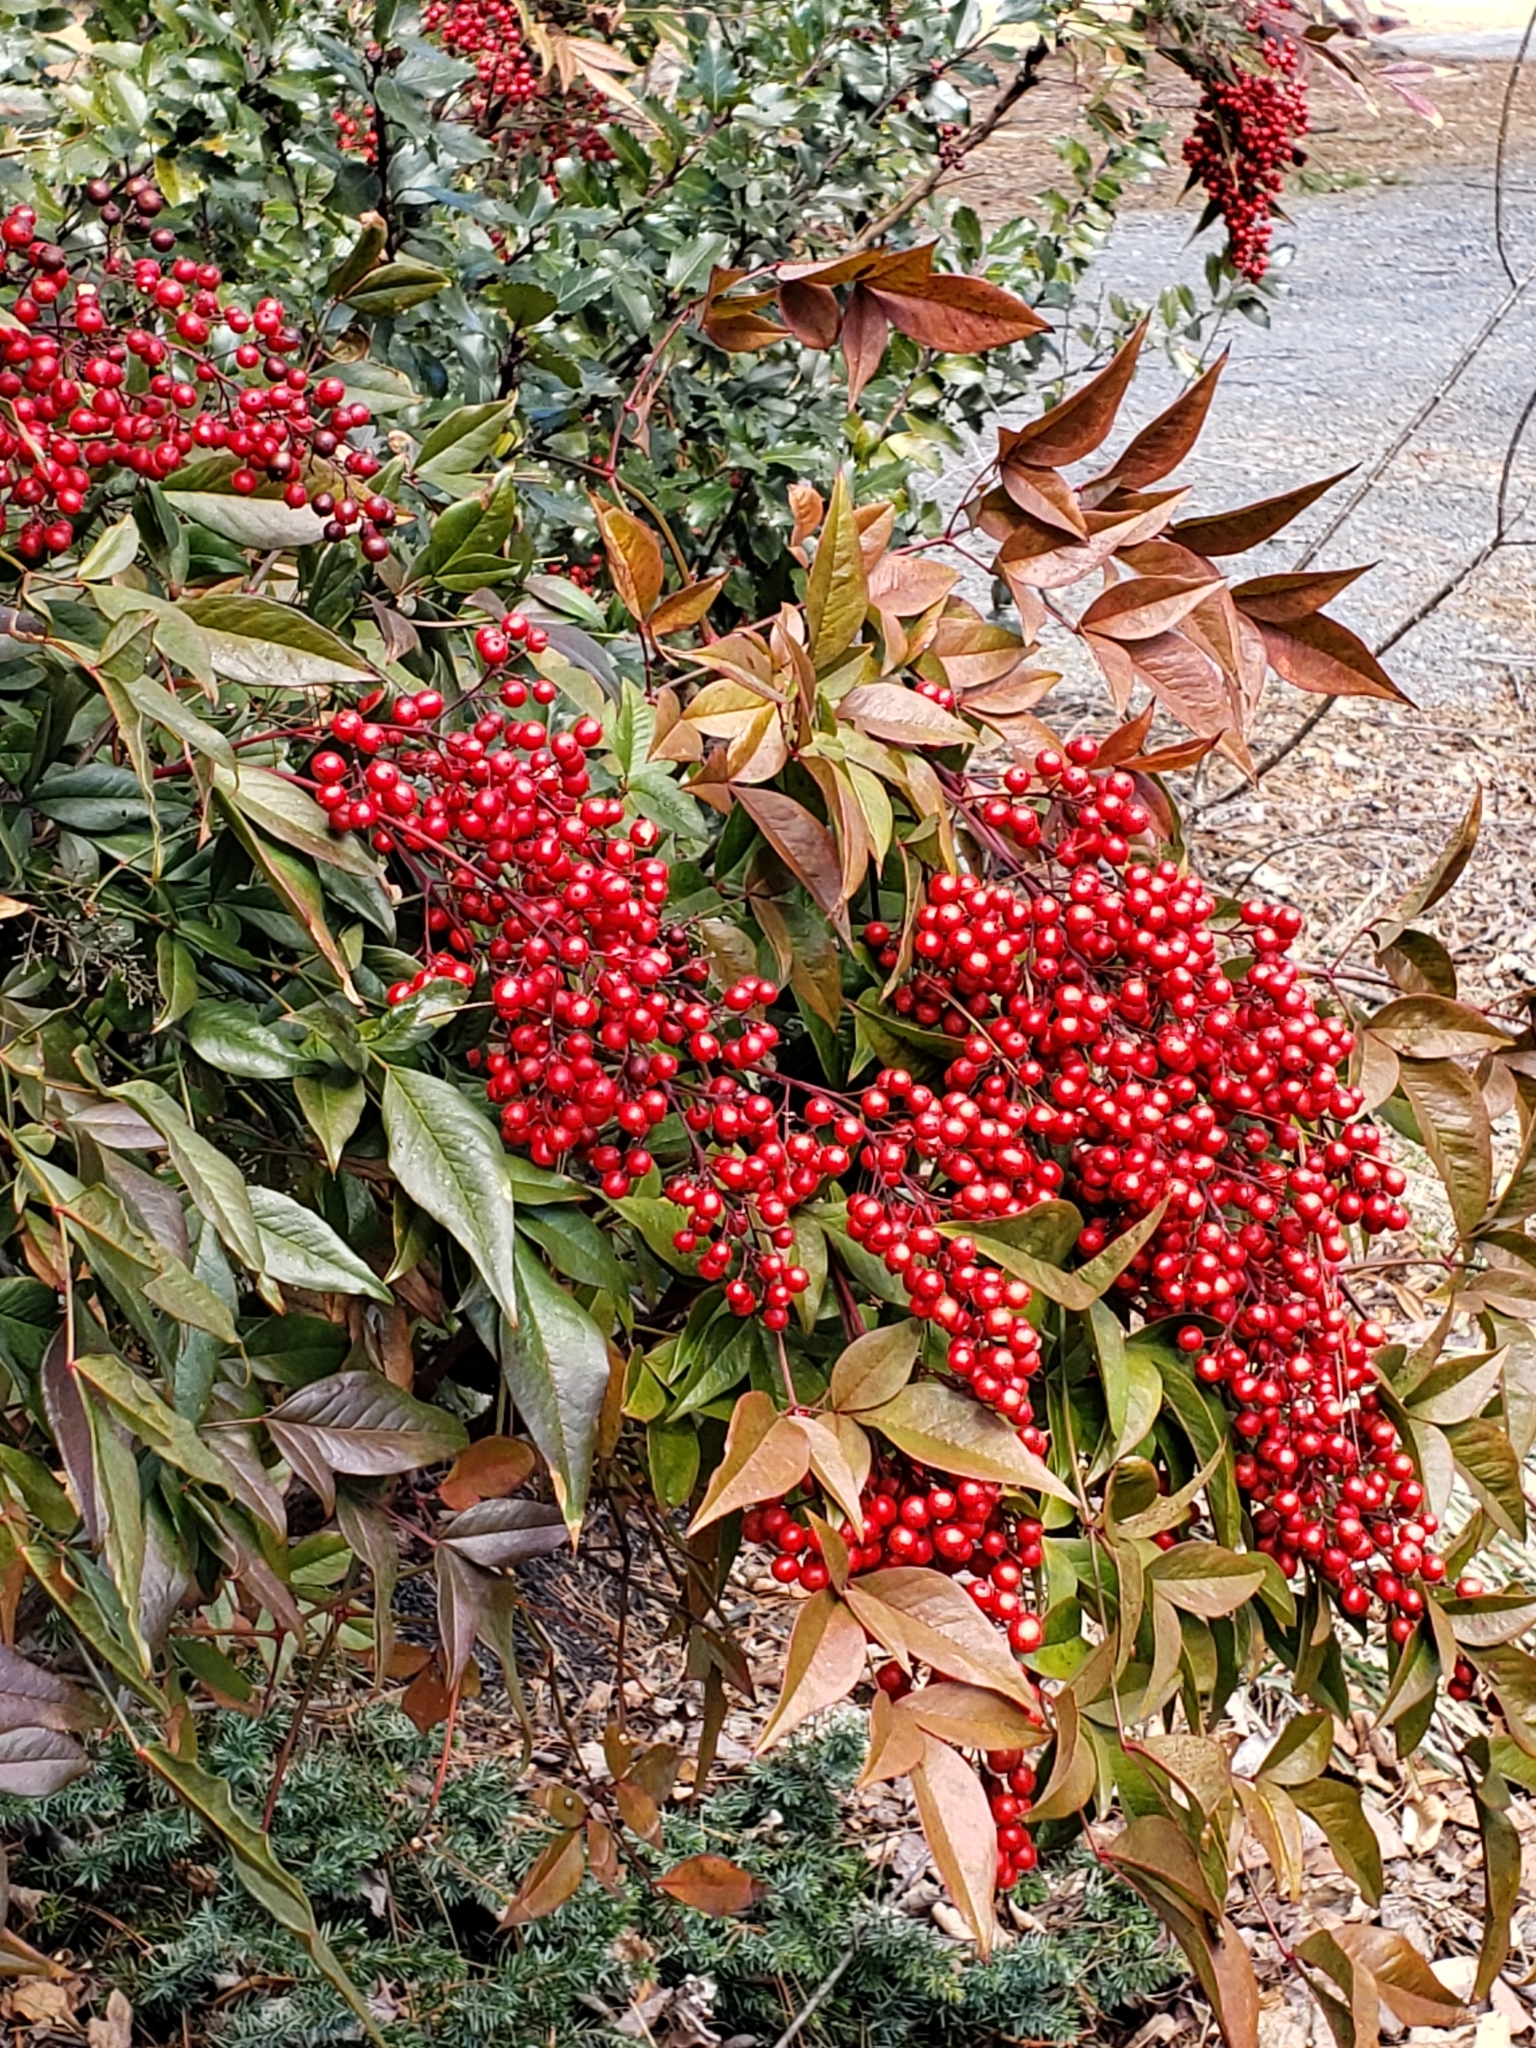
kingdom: Plantae
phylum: Tracheophyta
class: Magnoliopsida
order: Ranunculales
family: Berberidaceae
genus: Nandina
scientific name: Nandina domestica
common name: Sacred bamboo
